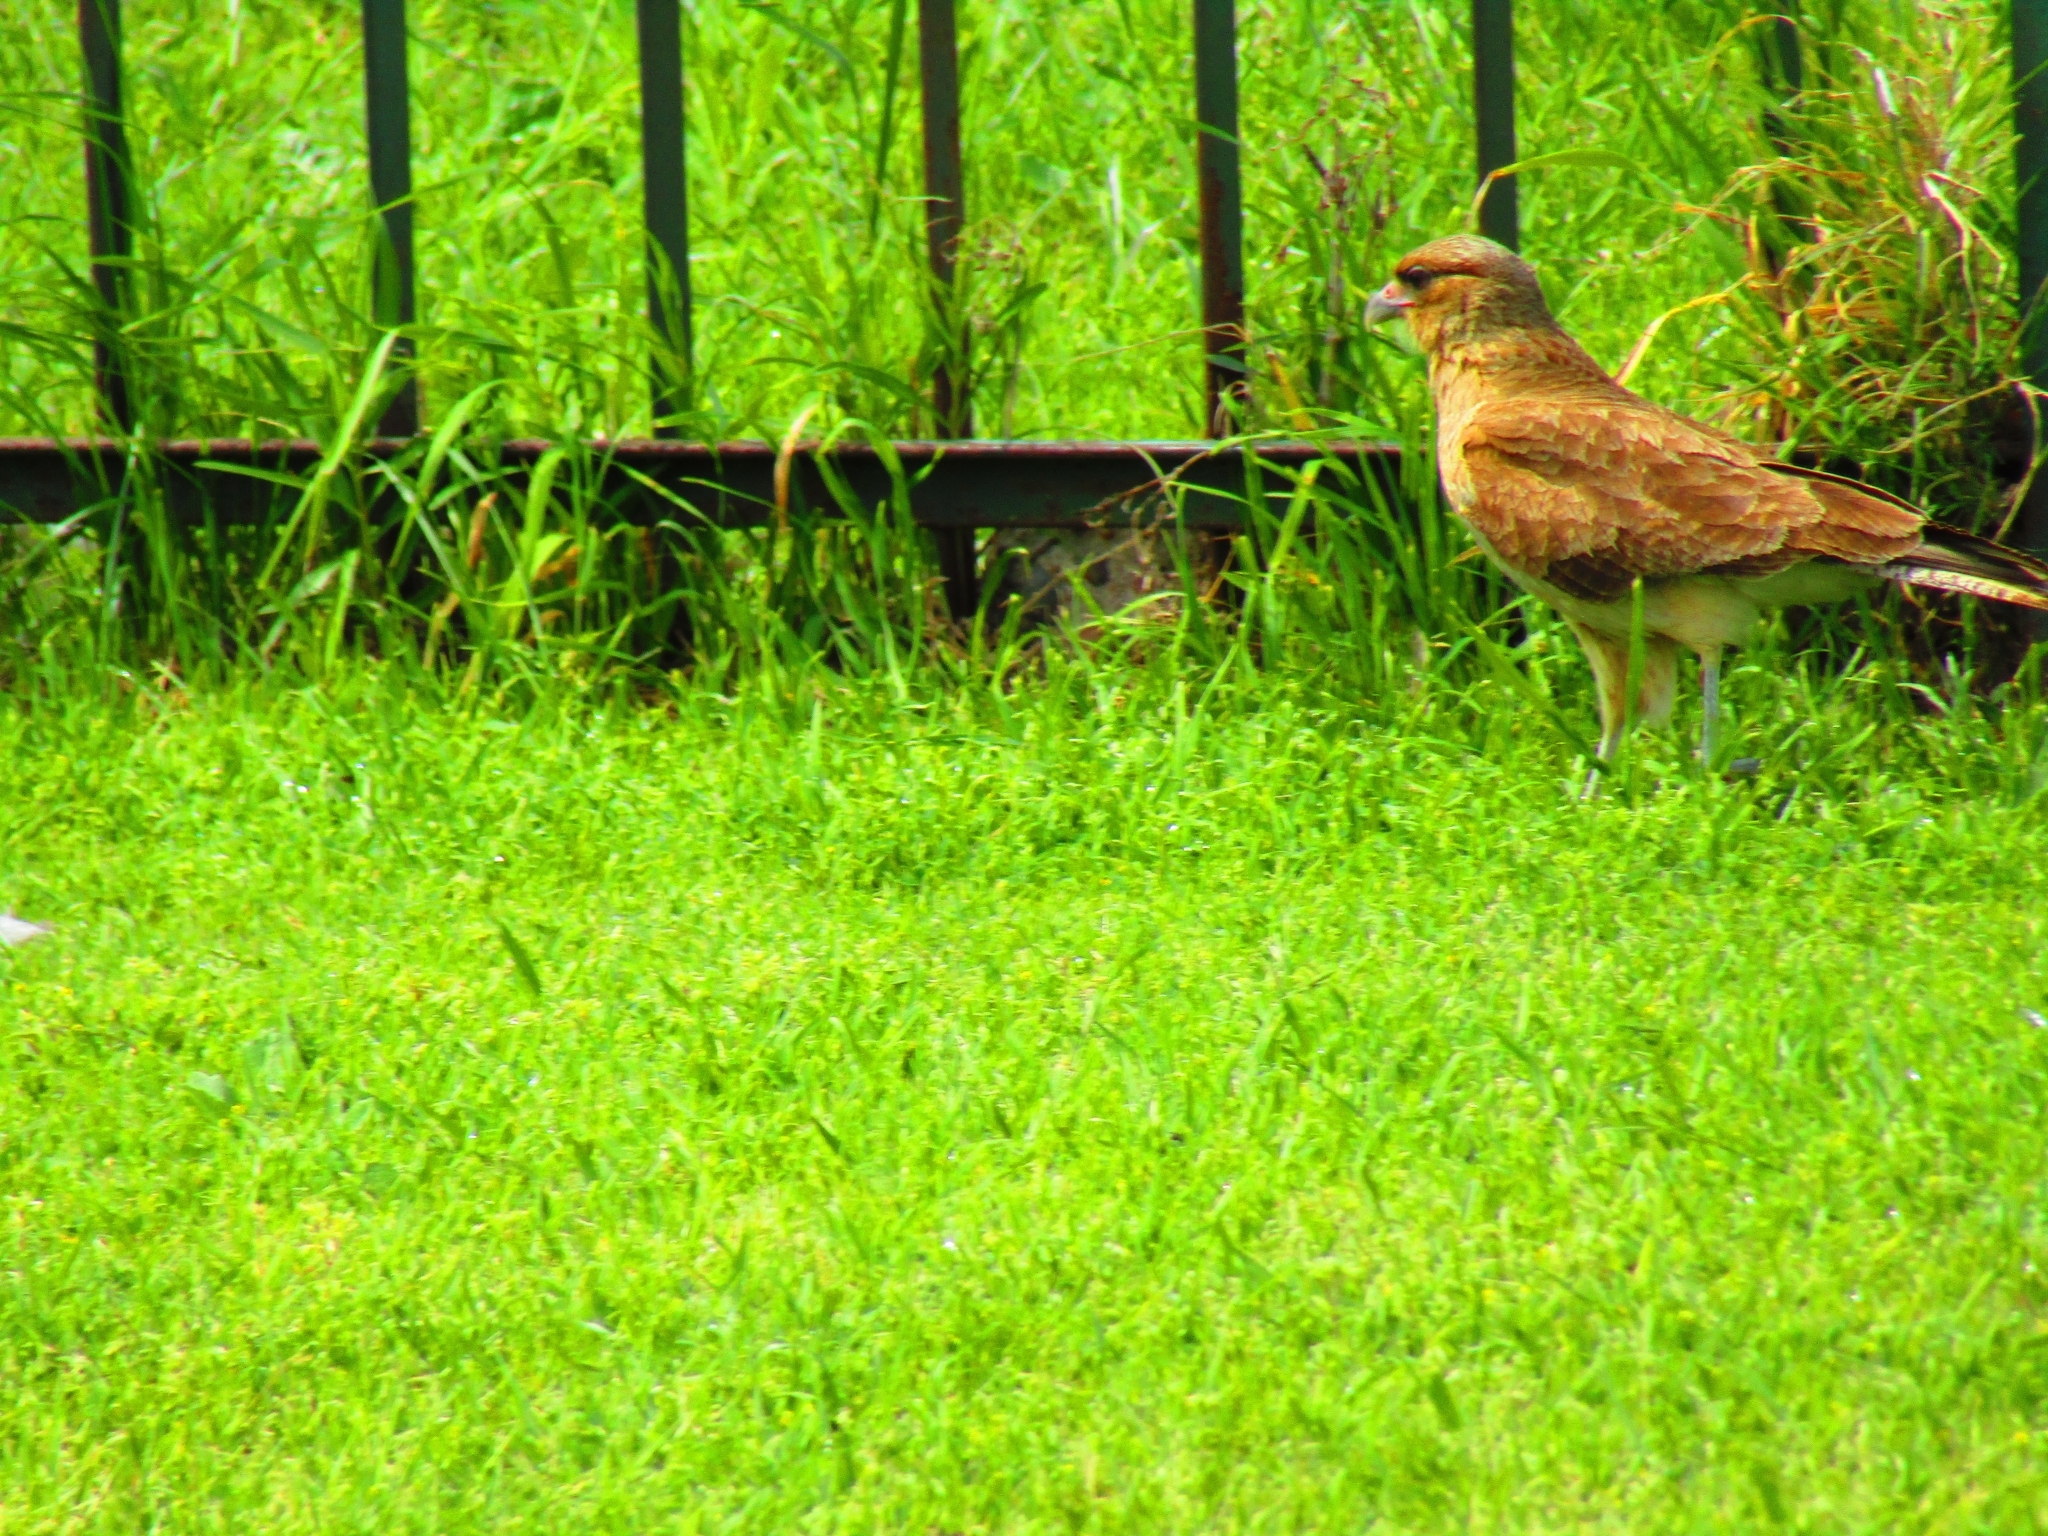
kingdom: Animalia
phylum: Chordata
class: Aves
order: Falconiformes
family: Falconidae
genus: Daptrius
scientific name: Daptrius
